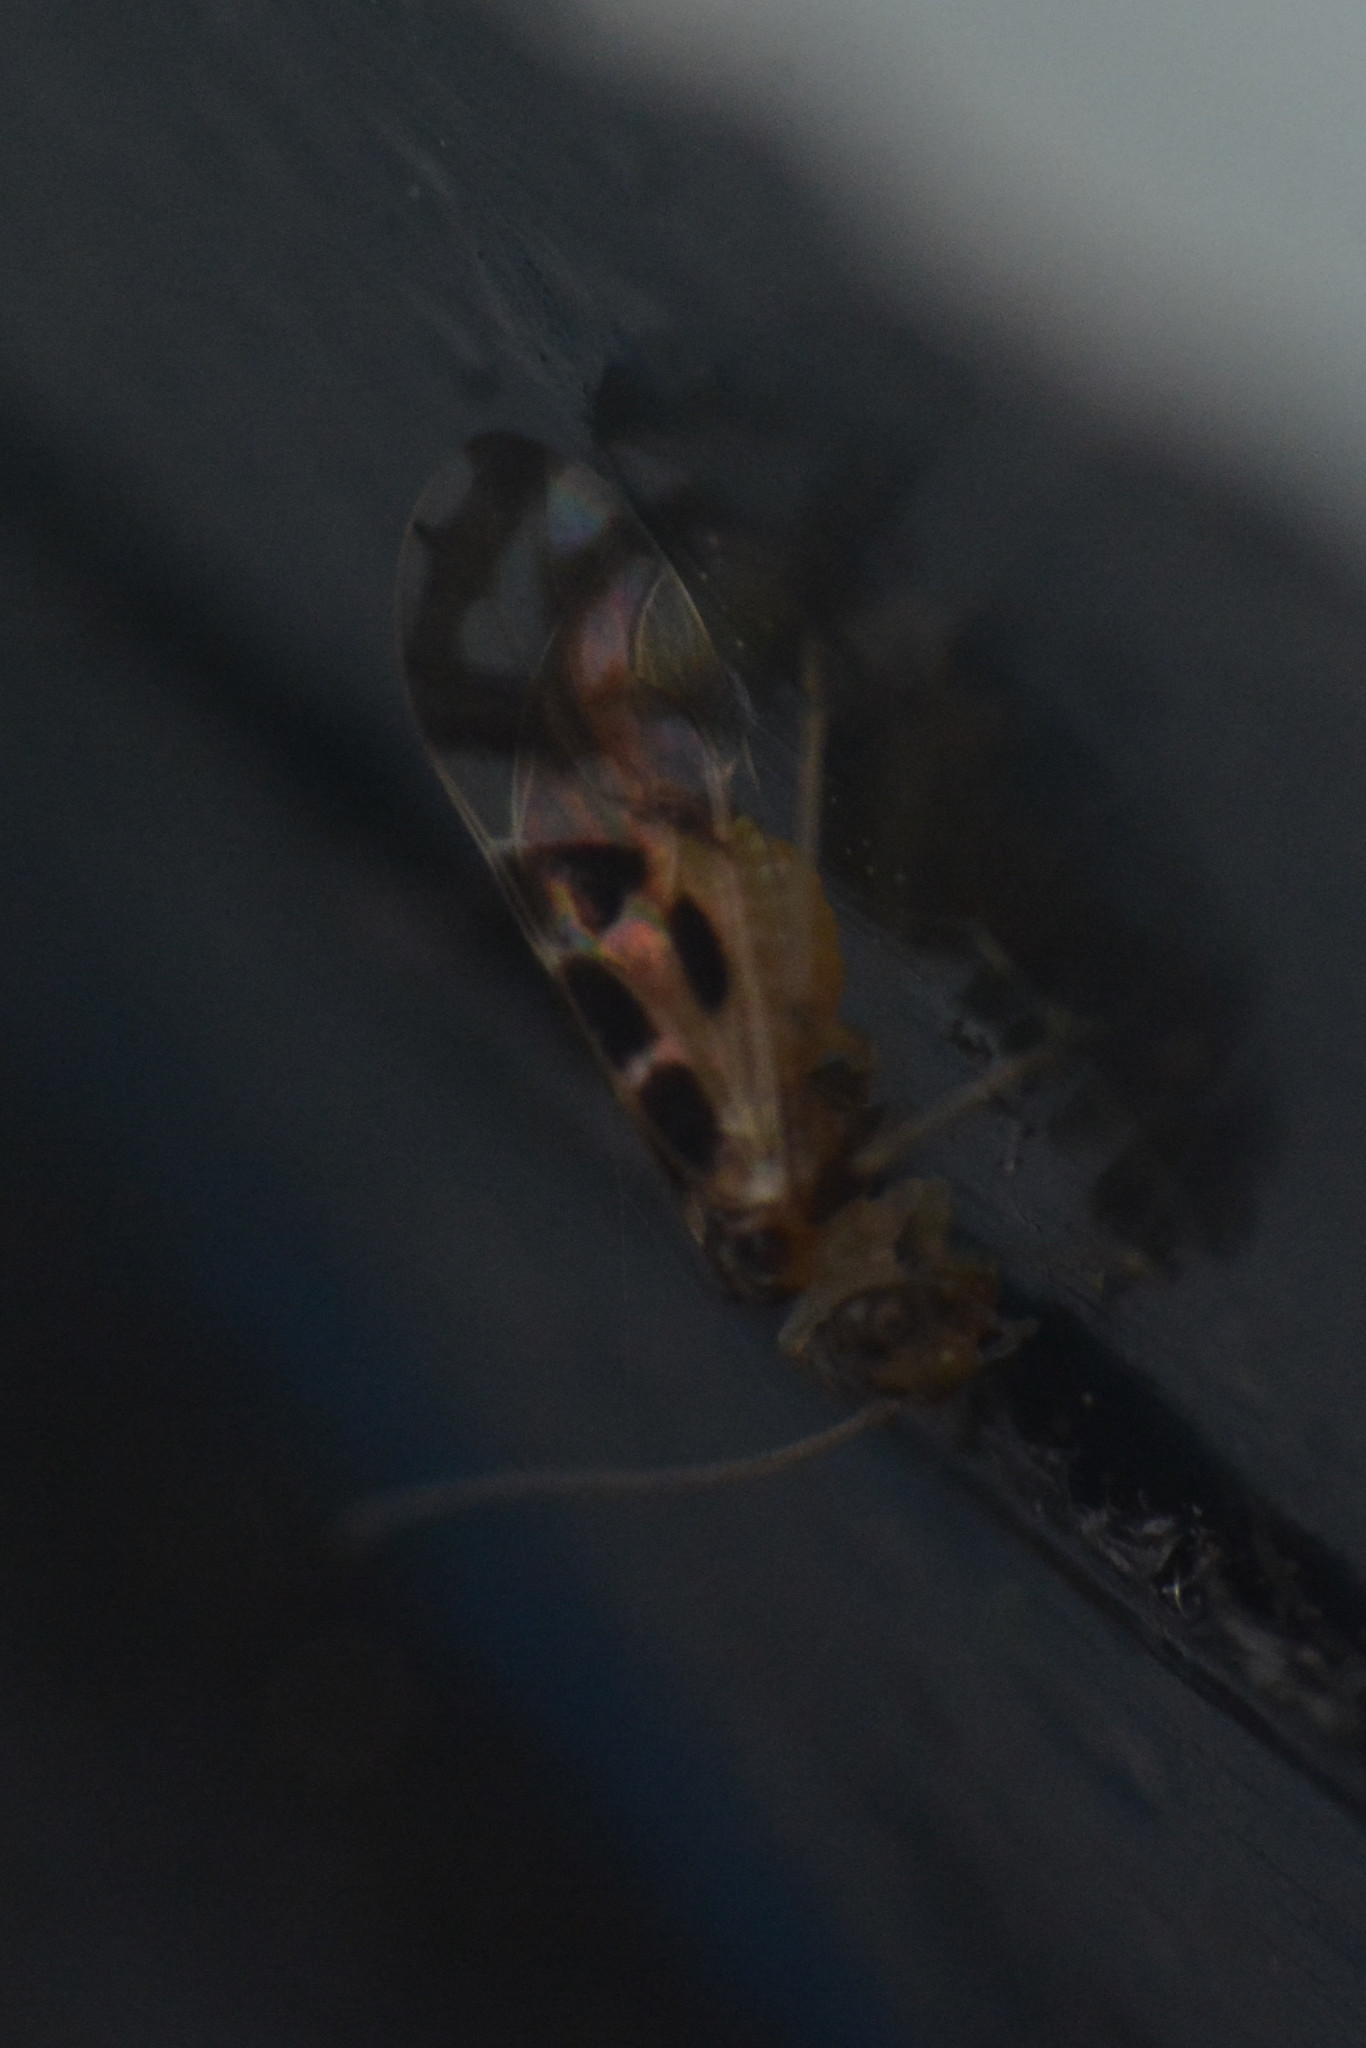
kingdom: Animalia
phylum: Arthropoda
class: Insecta
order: Psocodea
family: Stenopsocidae
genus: Graphopsocus
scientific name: Graphopsocus cruciatus
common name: Lizard bark louse
